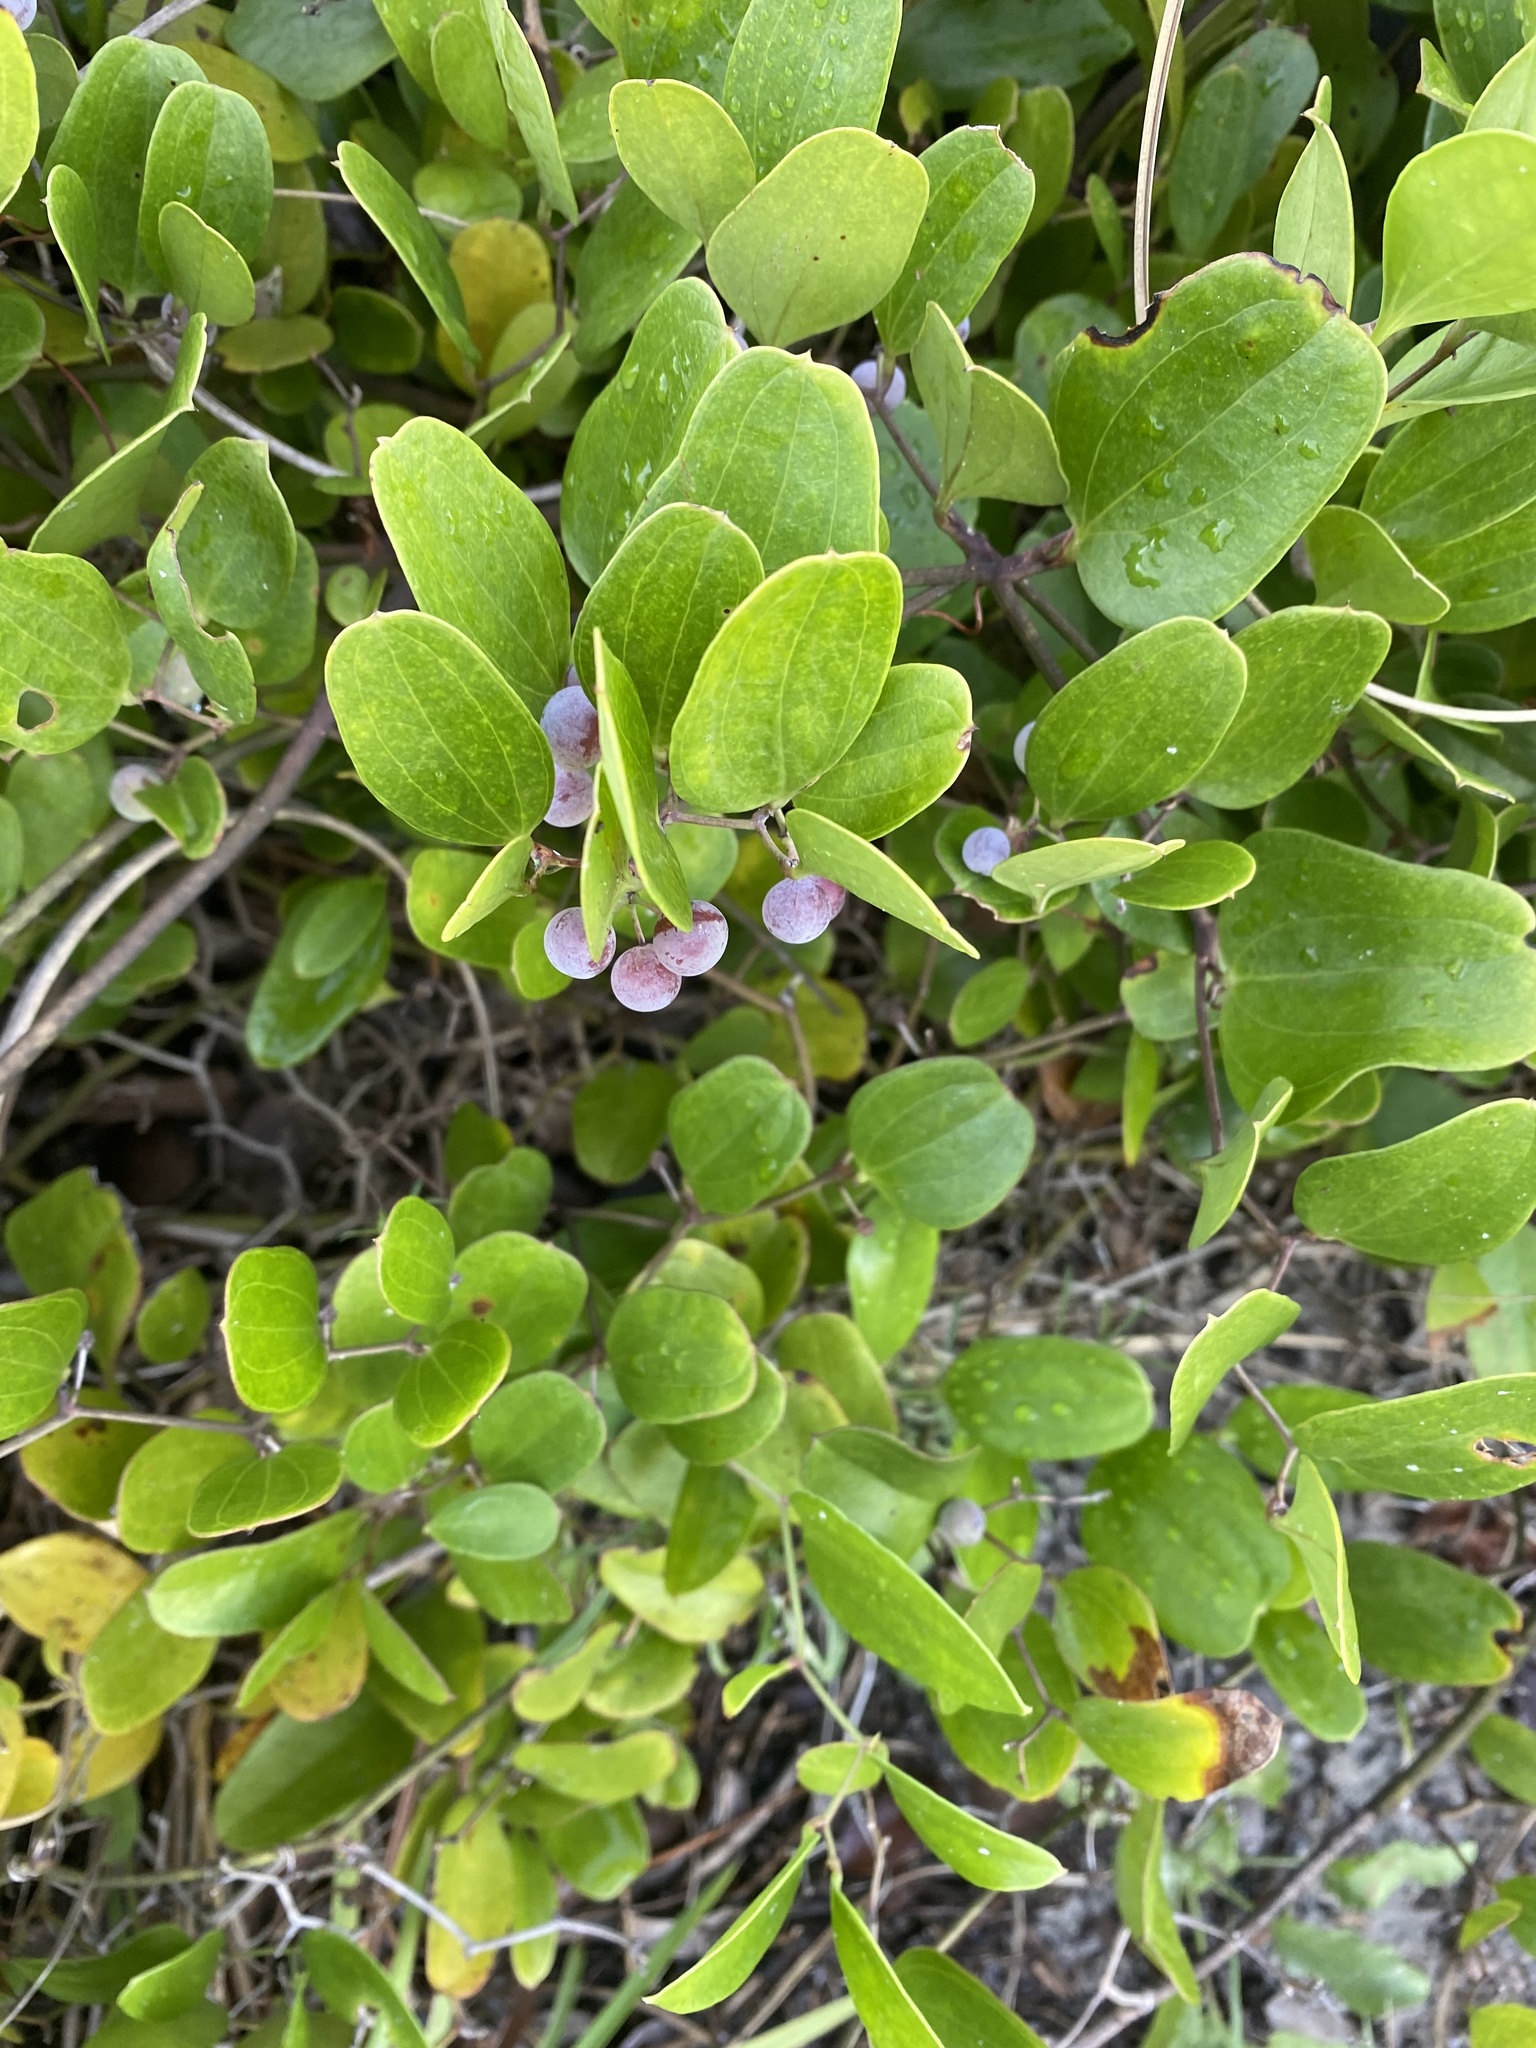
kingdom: Plantae
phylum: Tracheophyta
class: Liliopsida
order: Liliales
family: Smilacaceae
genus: Smilax
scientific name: Smilax auriculata
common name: Wild bamboo
